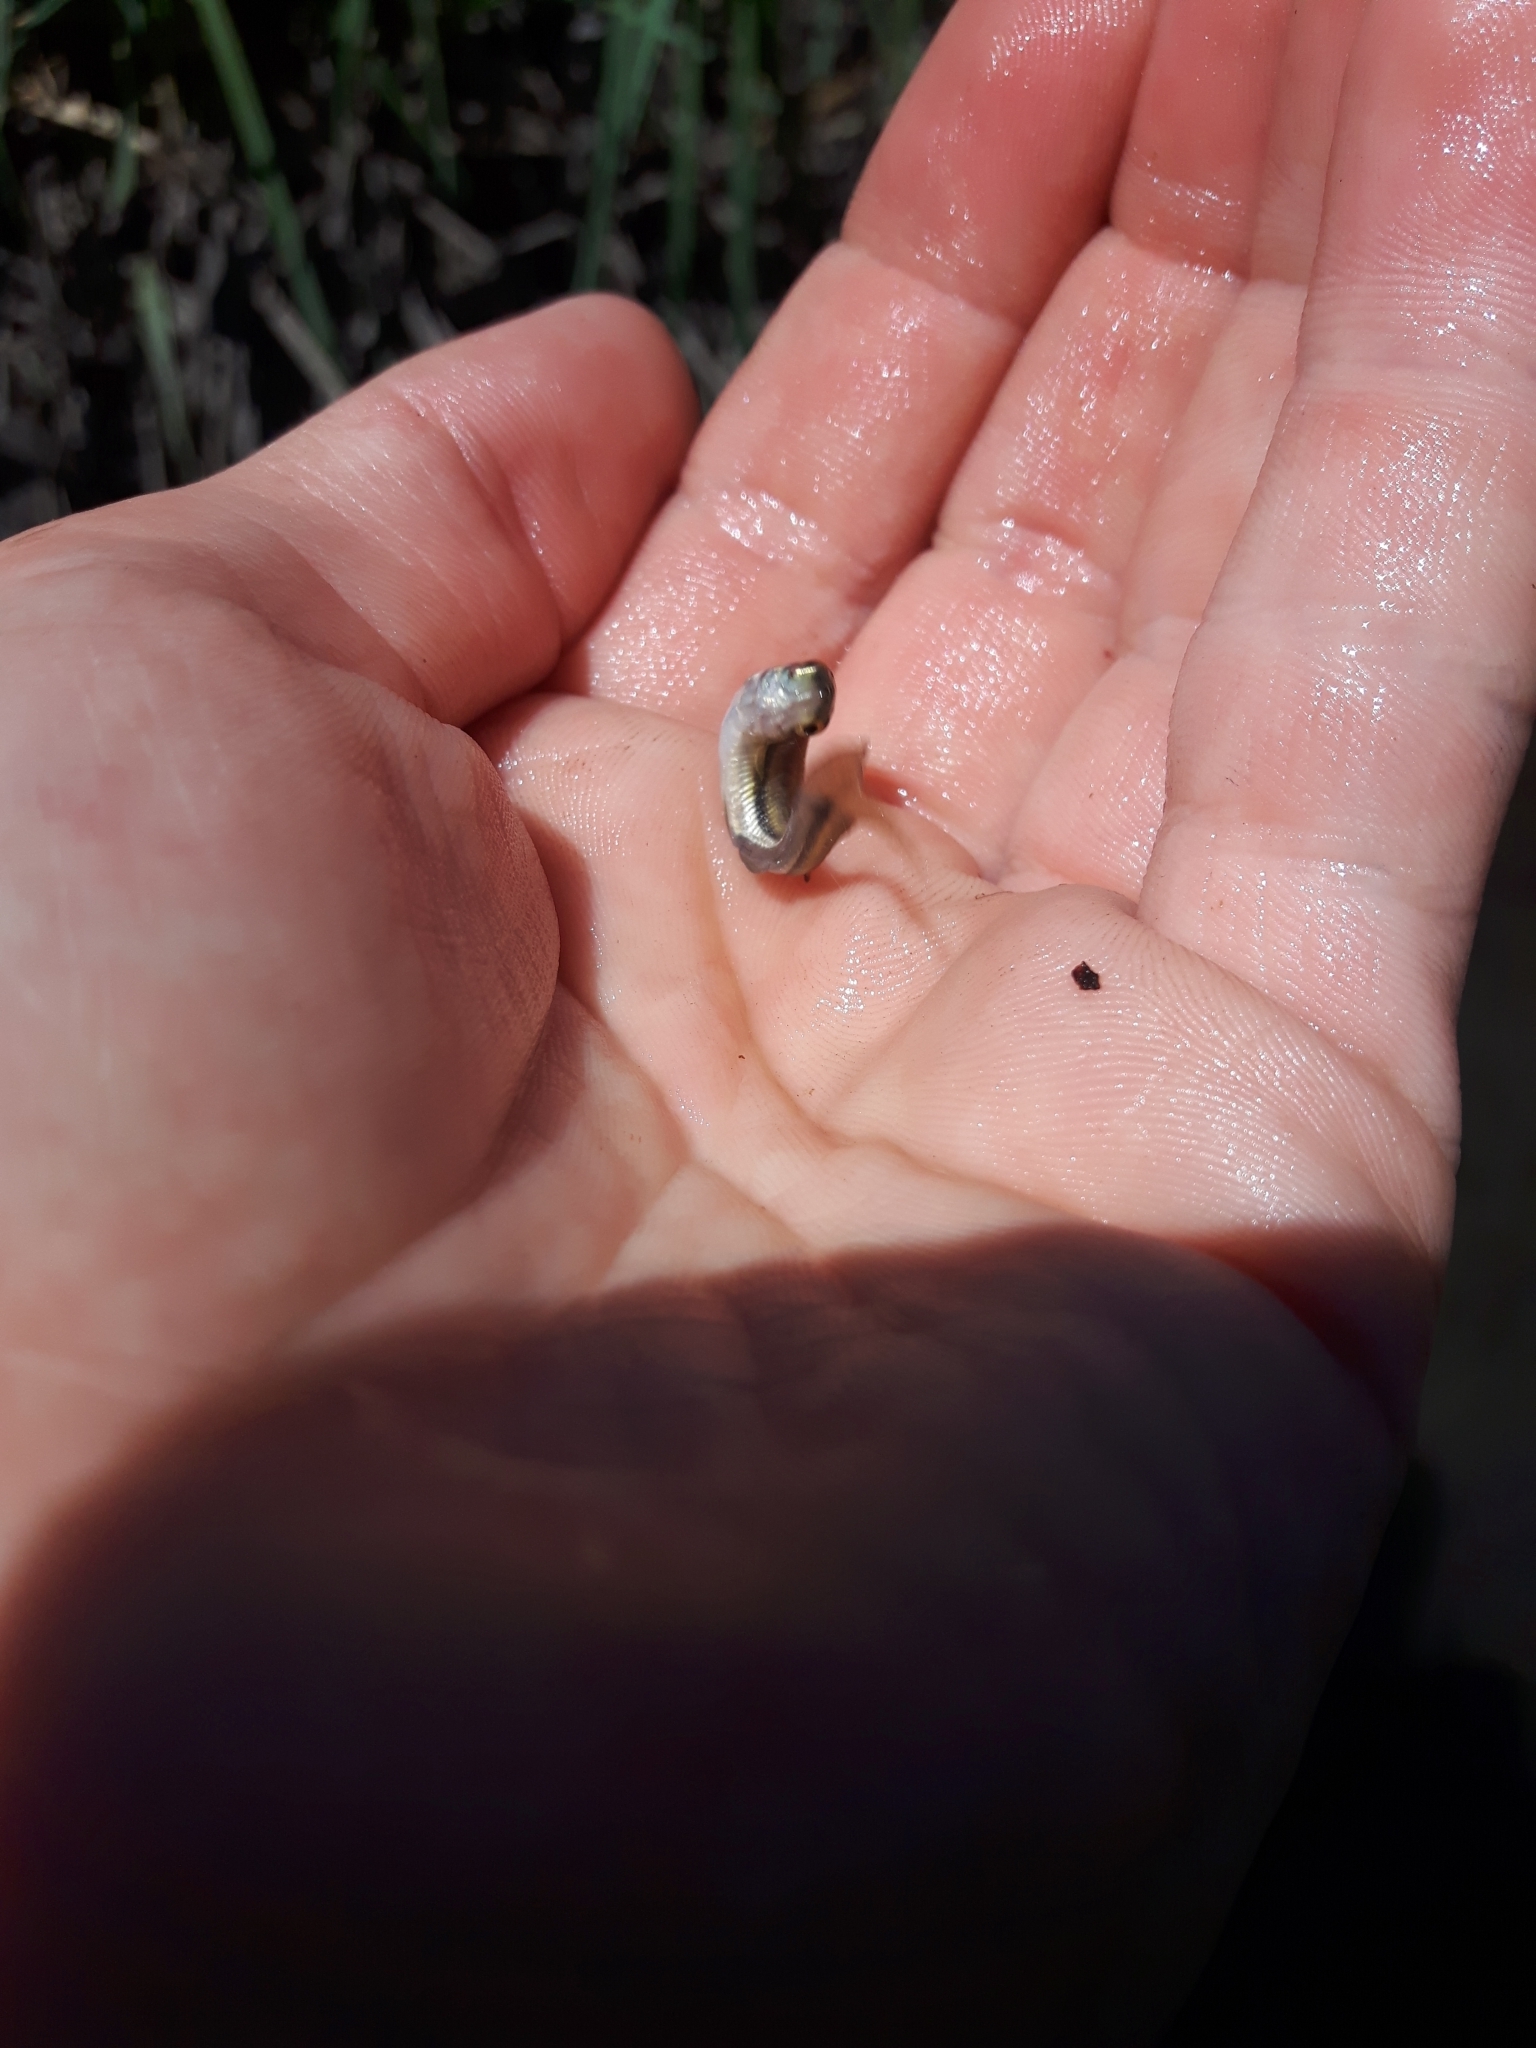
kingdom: Animalia
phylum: Chordata
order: Cypriniformes
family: Cyprinidae
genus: Chrosomus
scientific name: Chrosomus eos
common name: Northern redbelly dace
